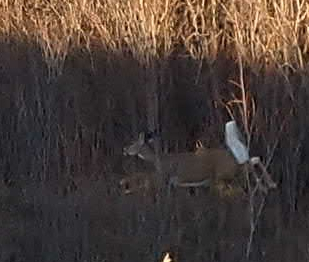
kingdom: Animalia
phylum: Chordata
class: Mammalia
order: Artiodactyla
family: Cervidae
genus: Odocoileus
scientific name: Odocoileus virginianus
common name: White-tailed deer
